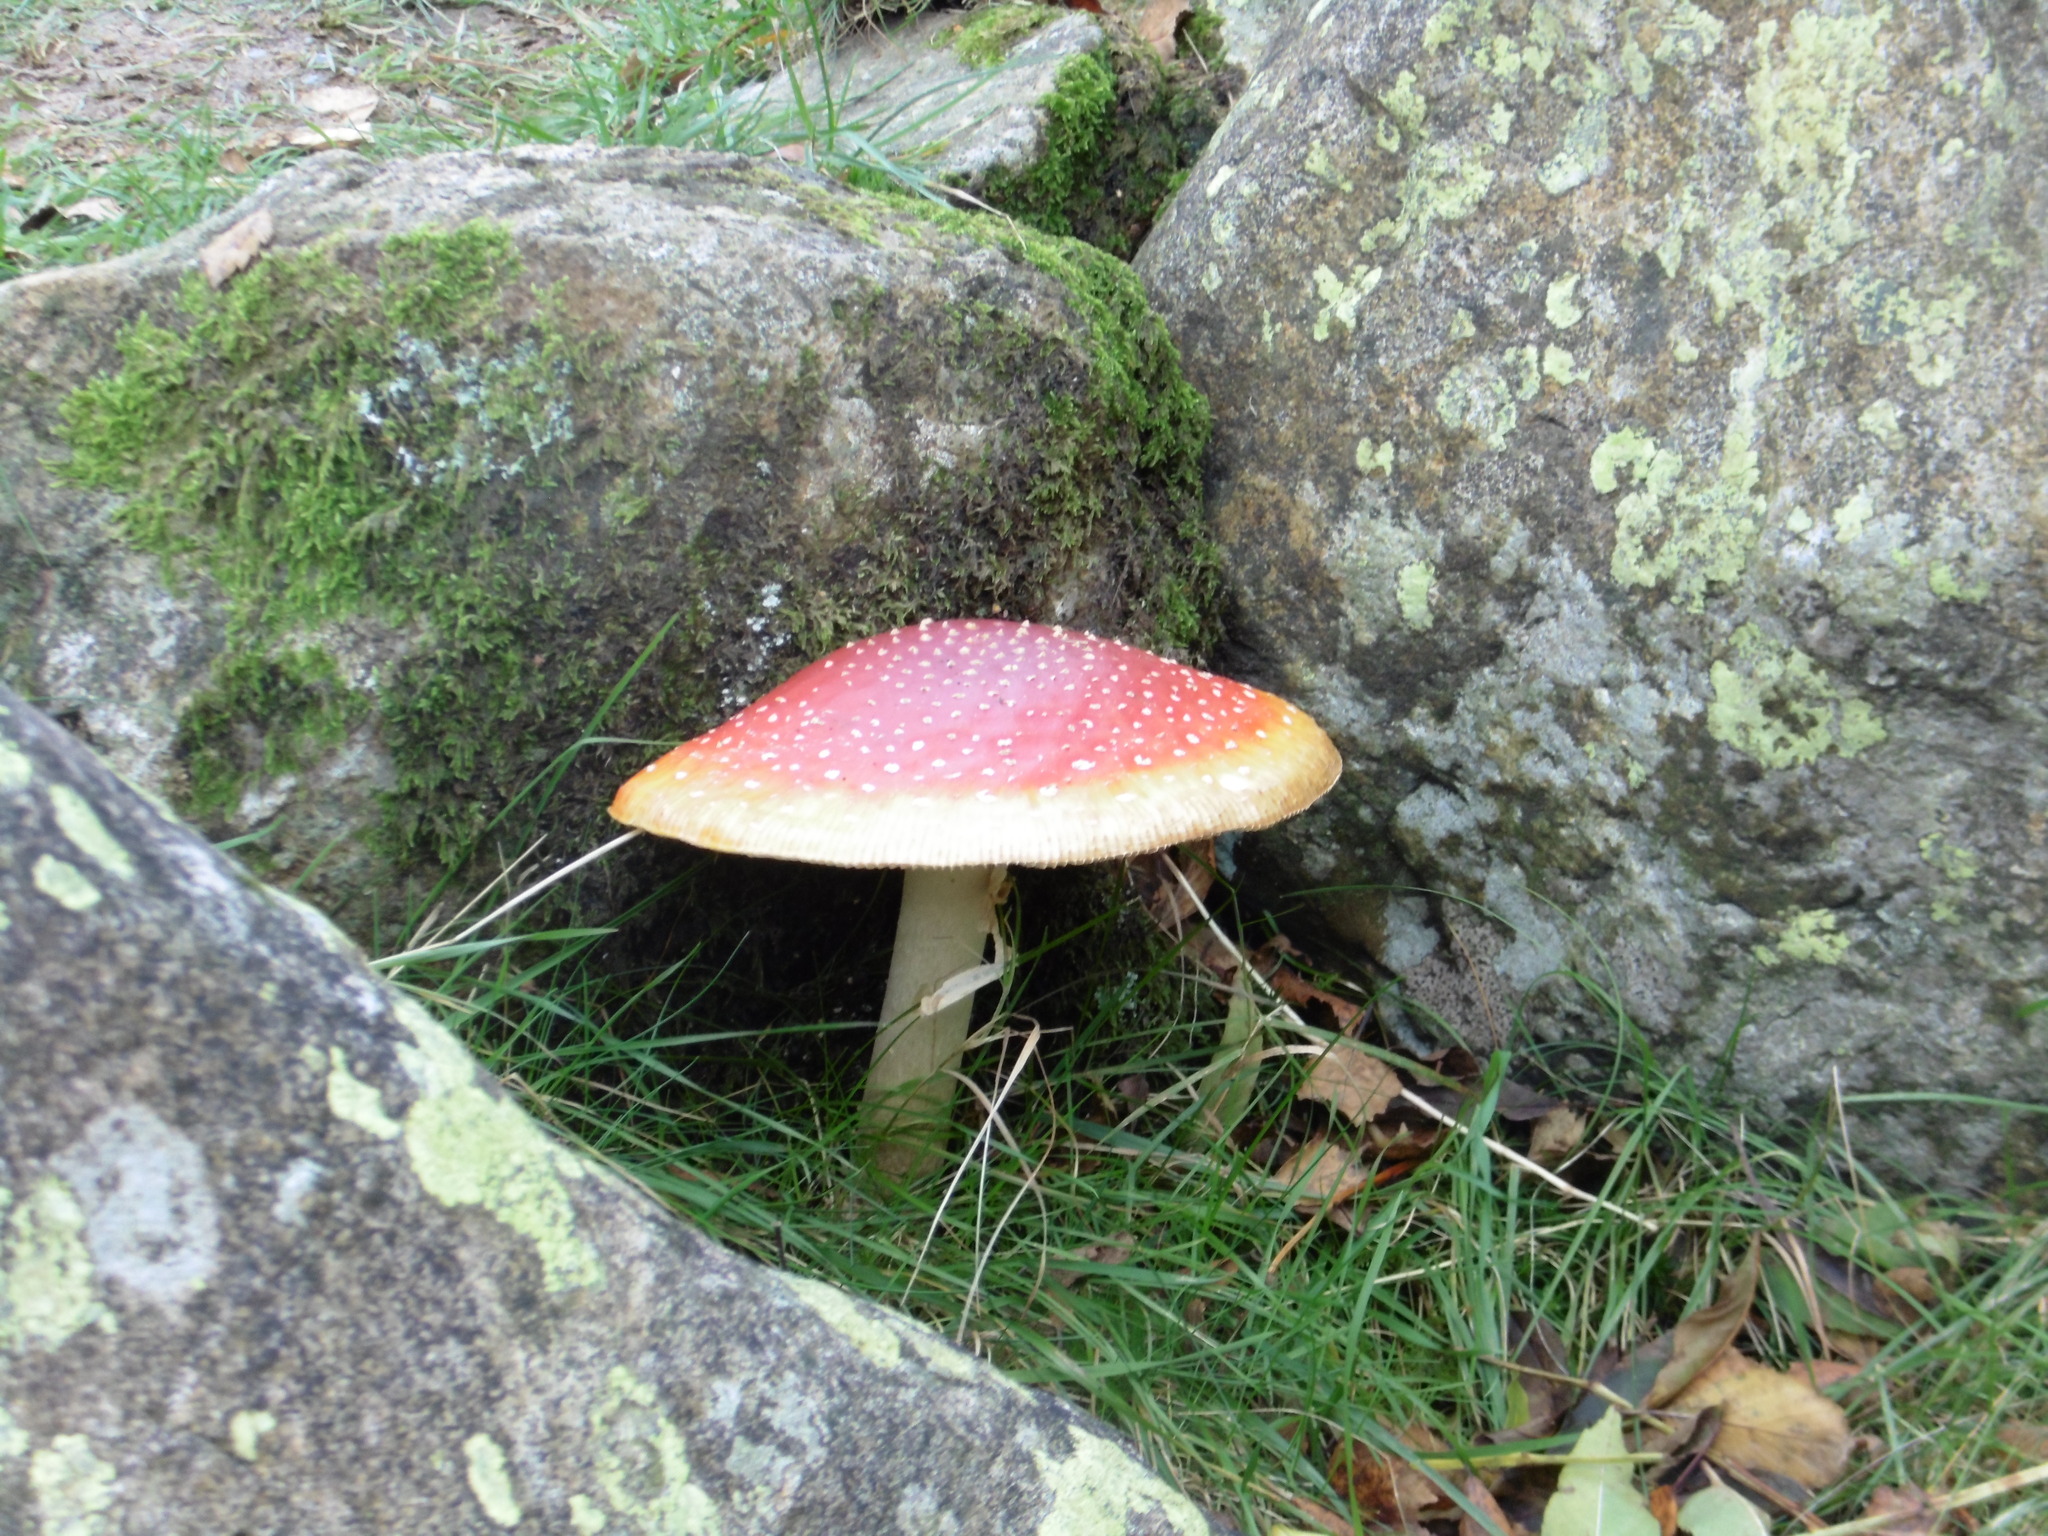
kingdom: Fungi
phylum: Basidiomycota
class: Agaricomycetes
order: Agaricales
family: Amanitaceae
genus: Amanita
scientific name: Amanita muscaria
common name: Fly agaric
